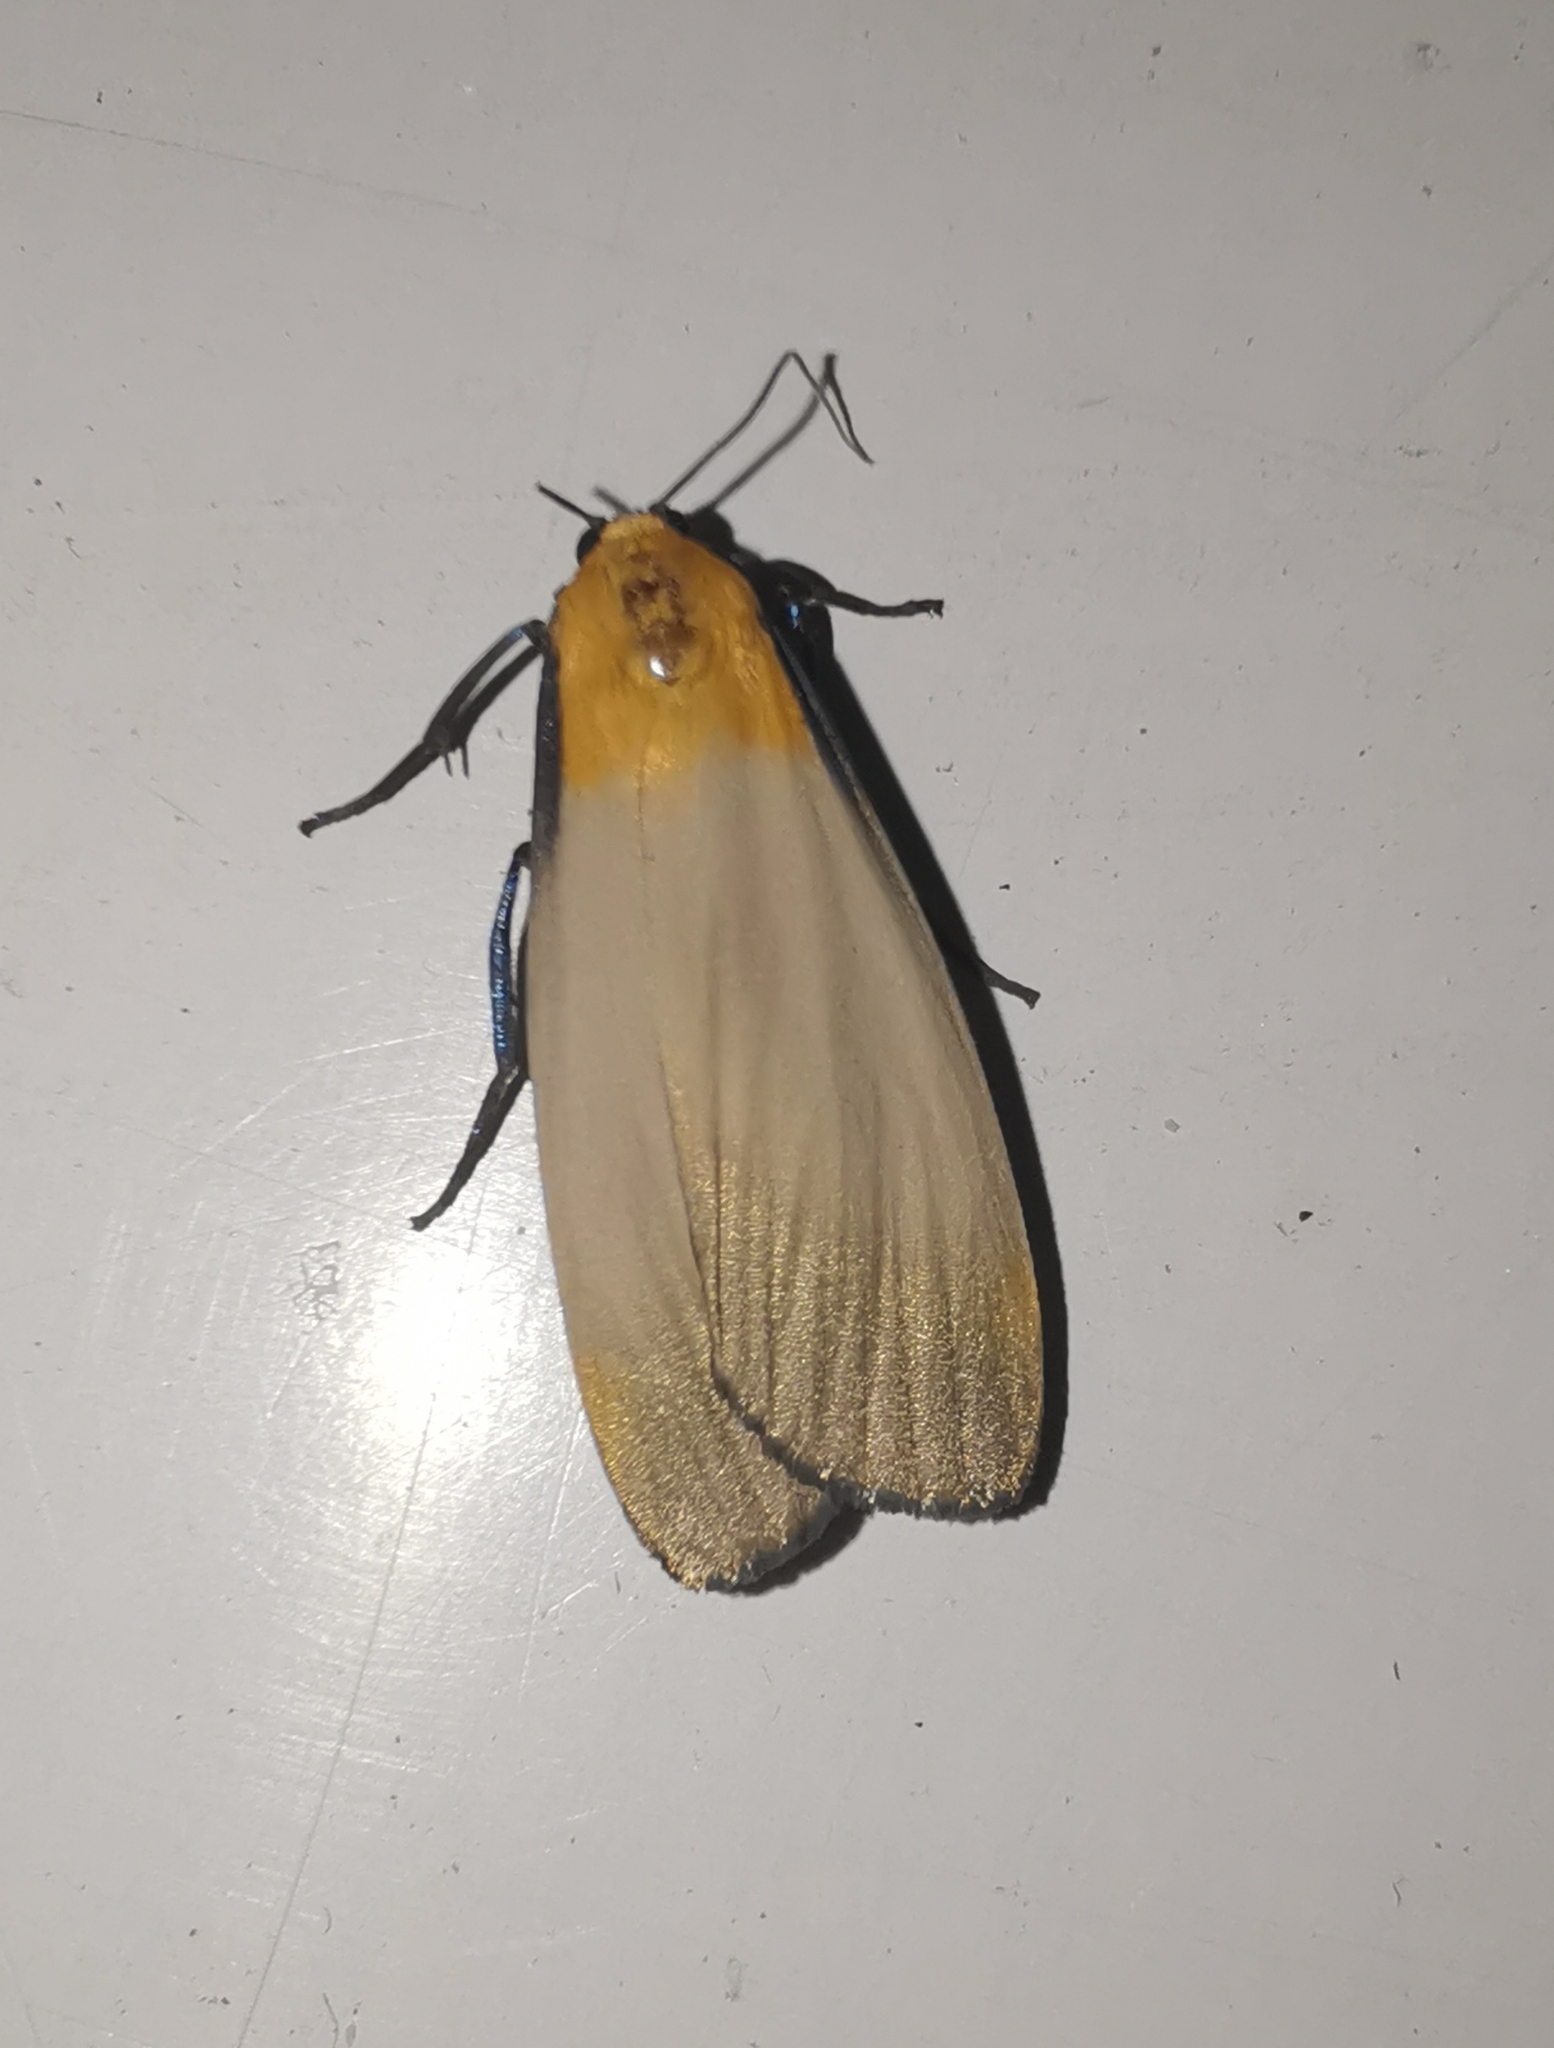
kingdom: Animalia
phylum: Arthropoda
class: Insecta
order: Lepidoptera
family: Erebidae
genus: Lithosia
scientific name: Lithosia quadra
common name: Four-spotted footman
